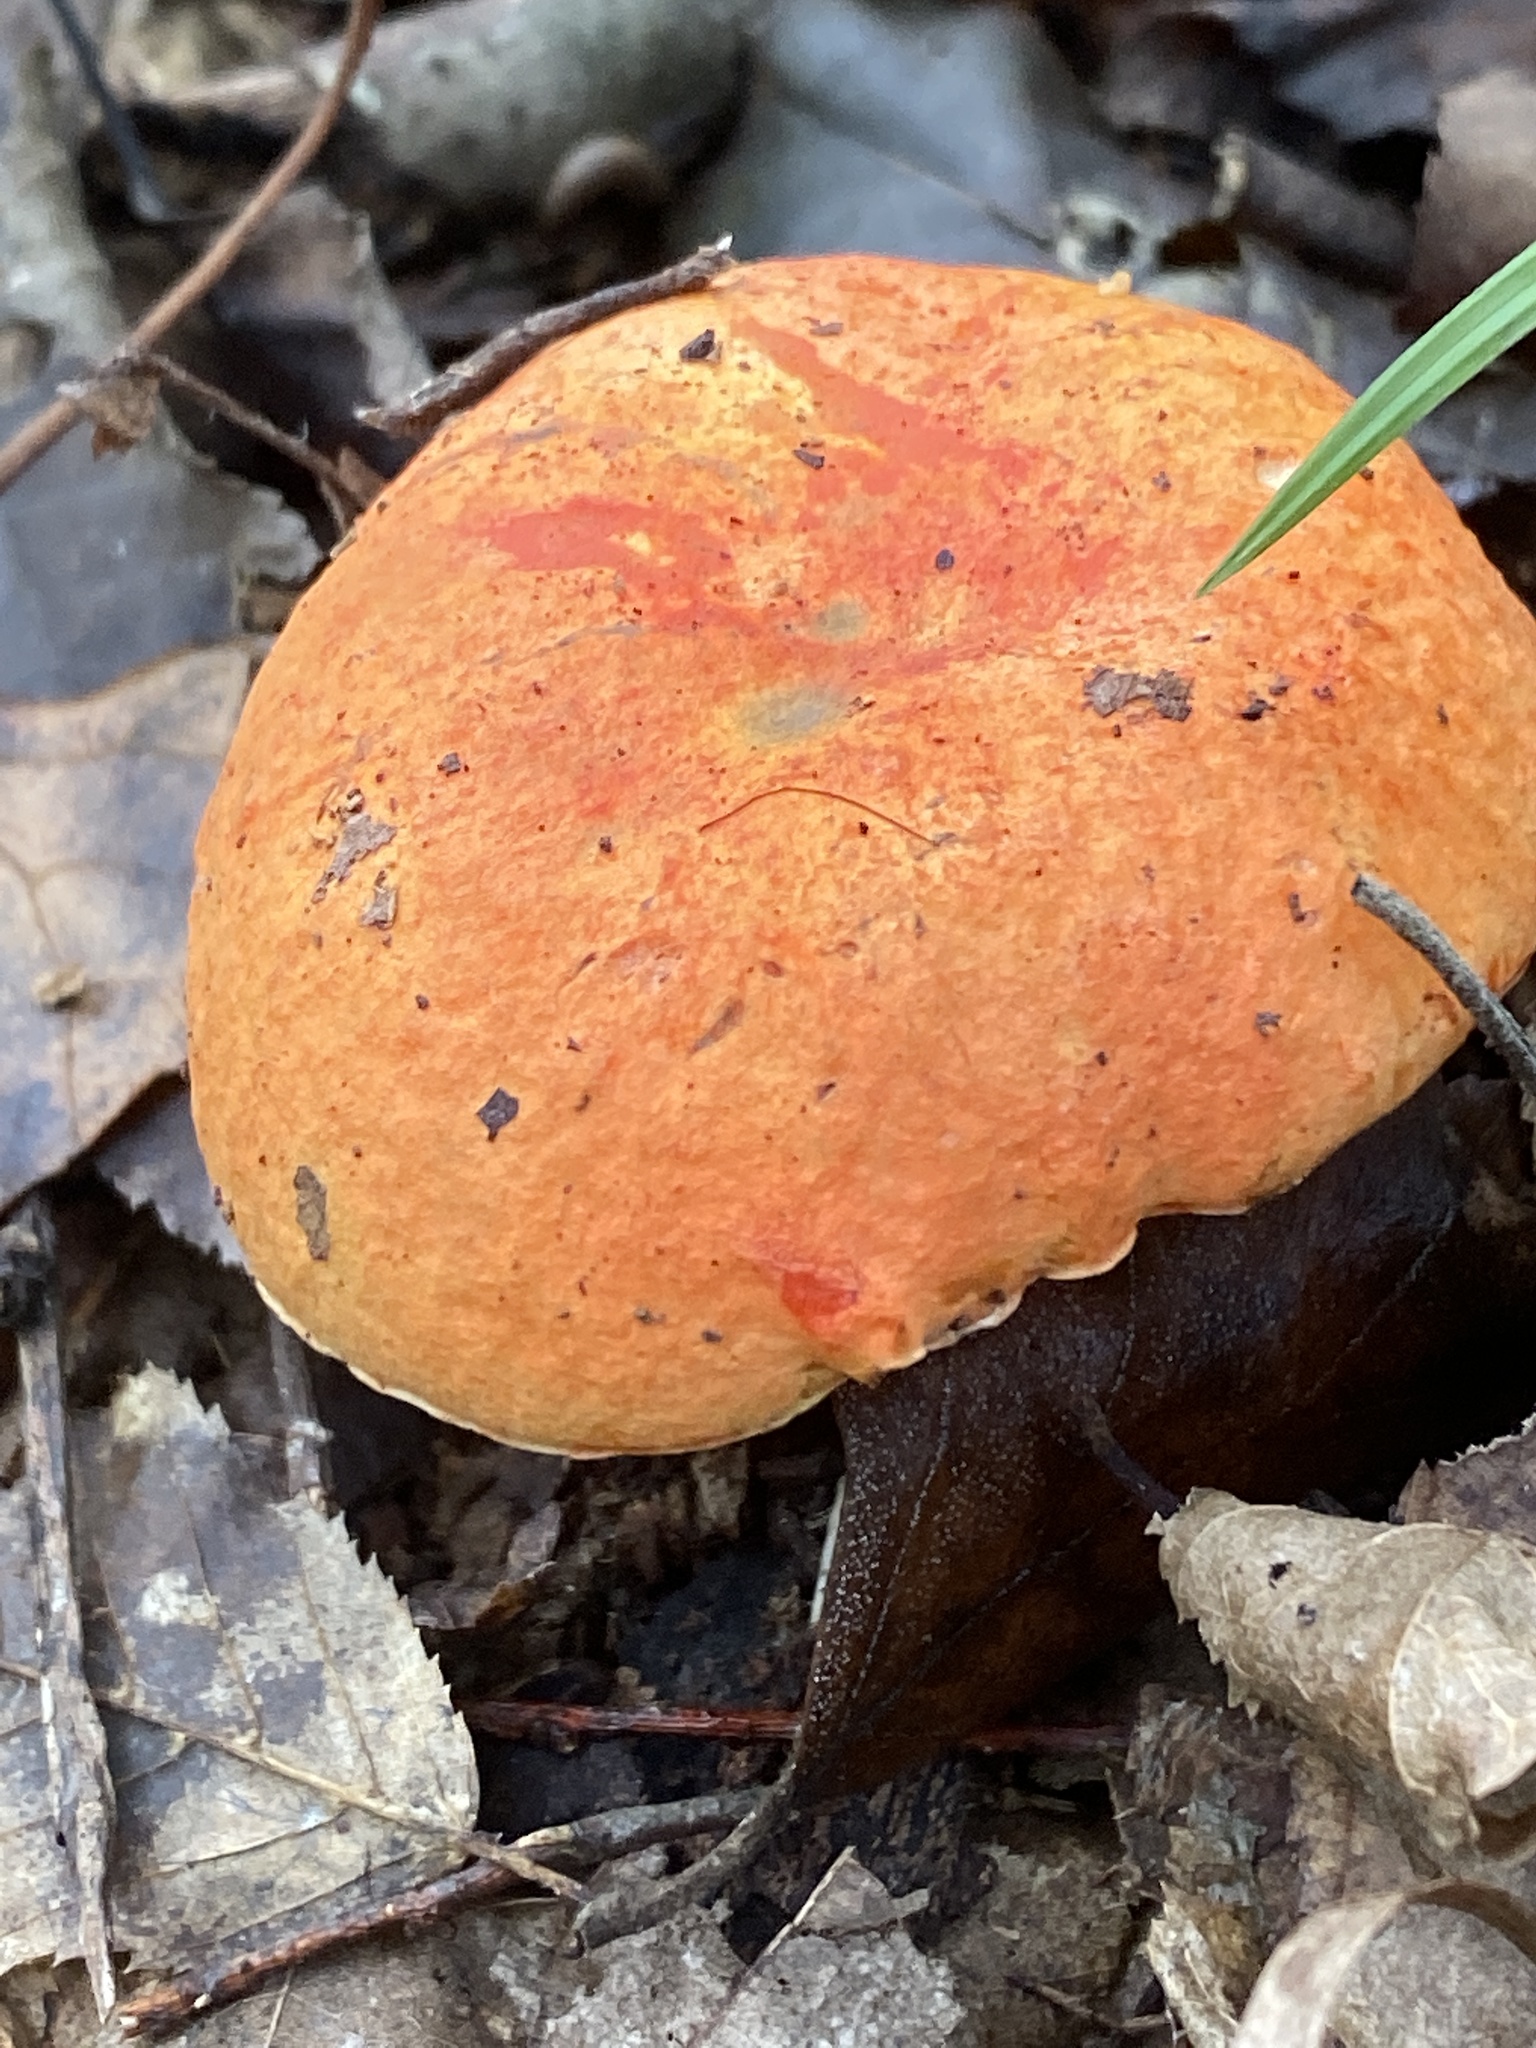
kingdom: Fungi
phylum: Basidiomycota
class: Agaricomycetes
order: Boletales
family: Boletaceae
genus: Tylopilus
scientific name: Tylopilus balloui
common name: Burnt-orange bolete
